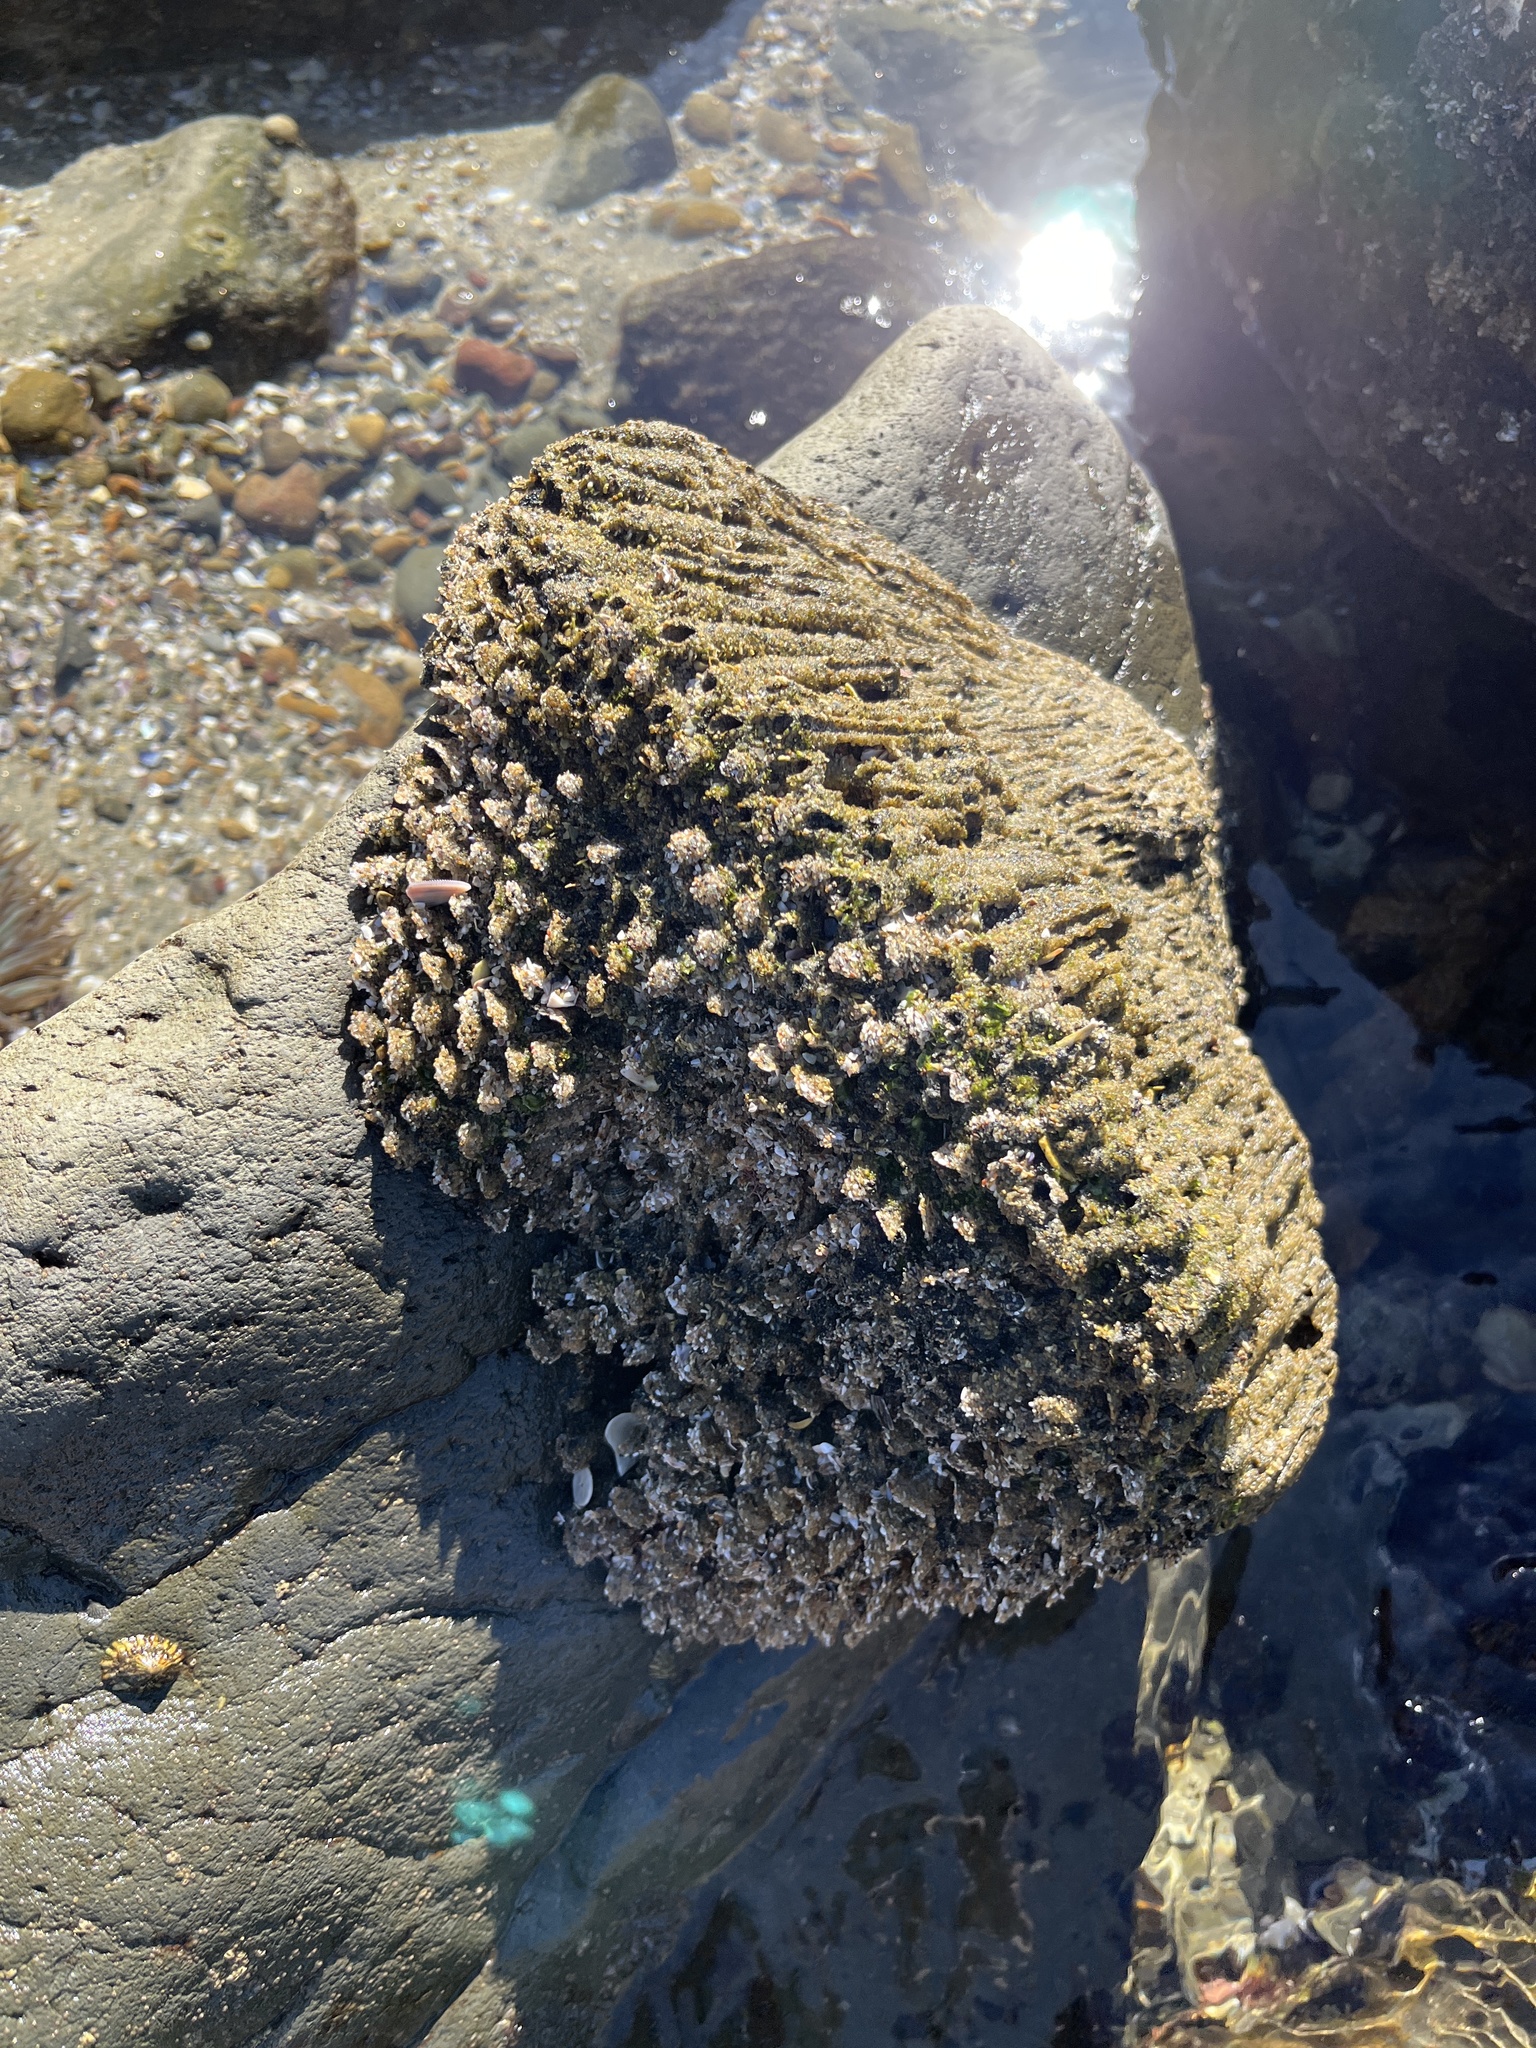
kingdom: Animalia
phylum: Annelida
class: Polychaeta
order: Sabellida
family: Sabellariidae
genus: Phragmatopoma
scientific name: Phragmatopoma californica
